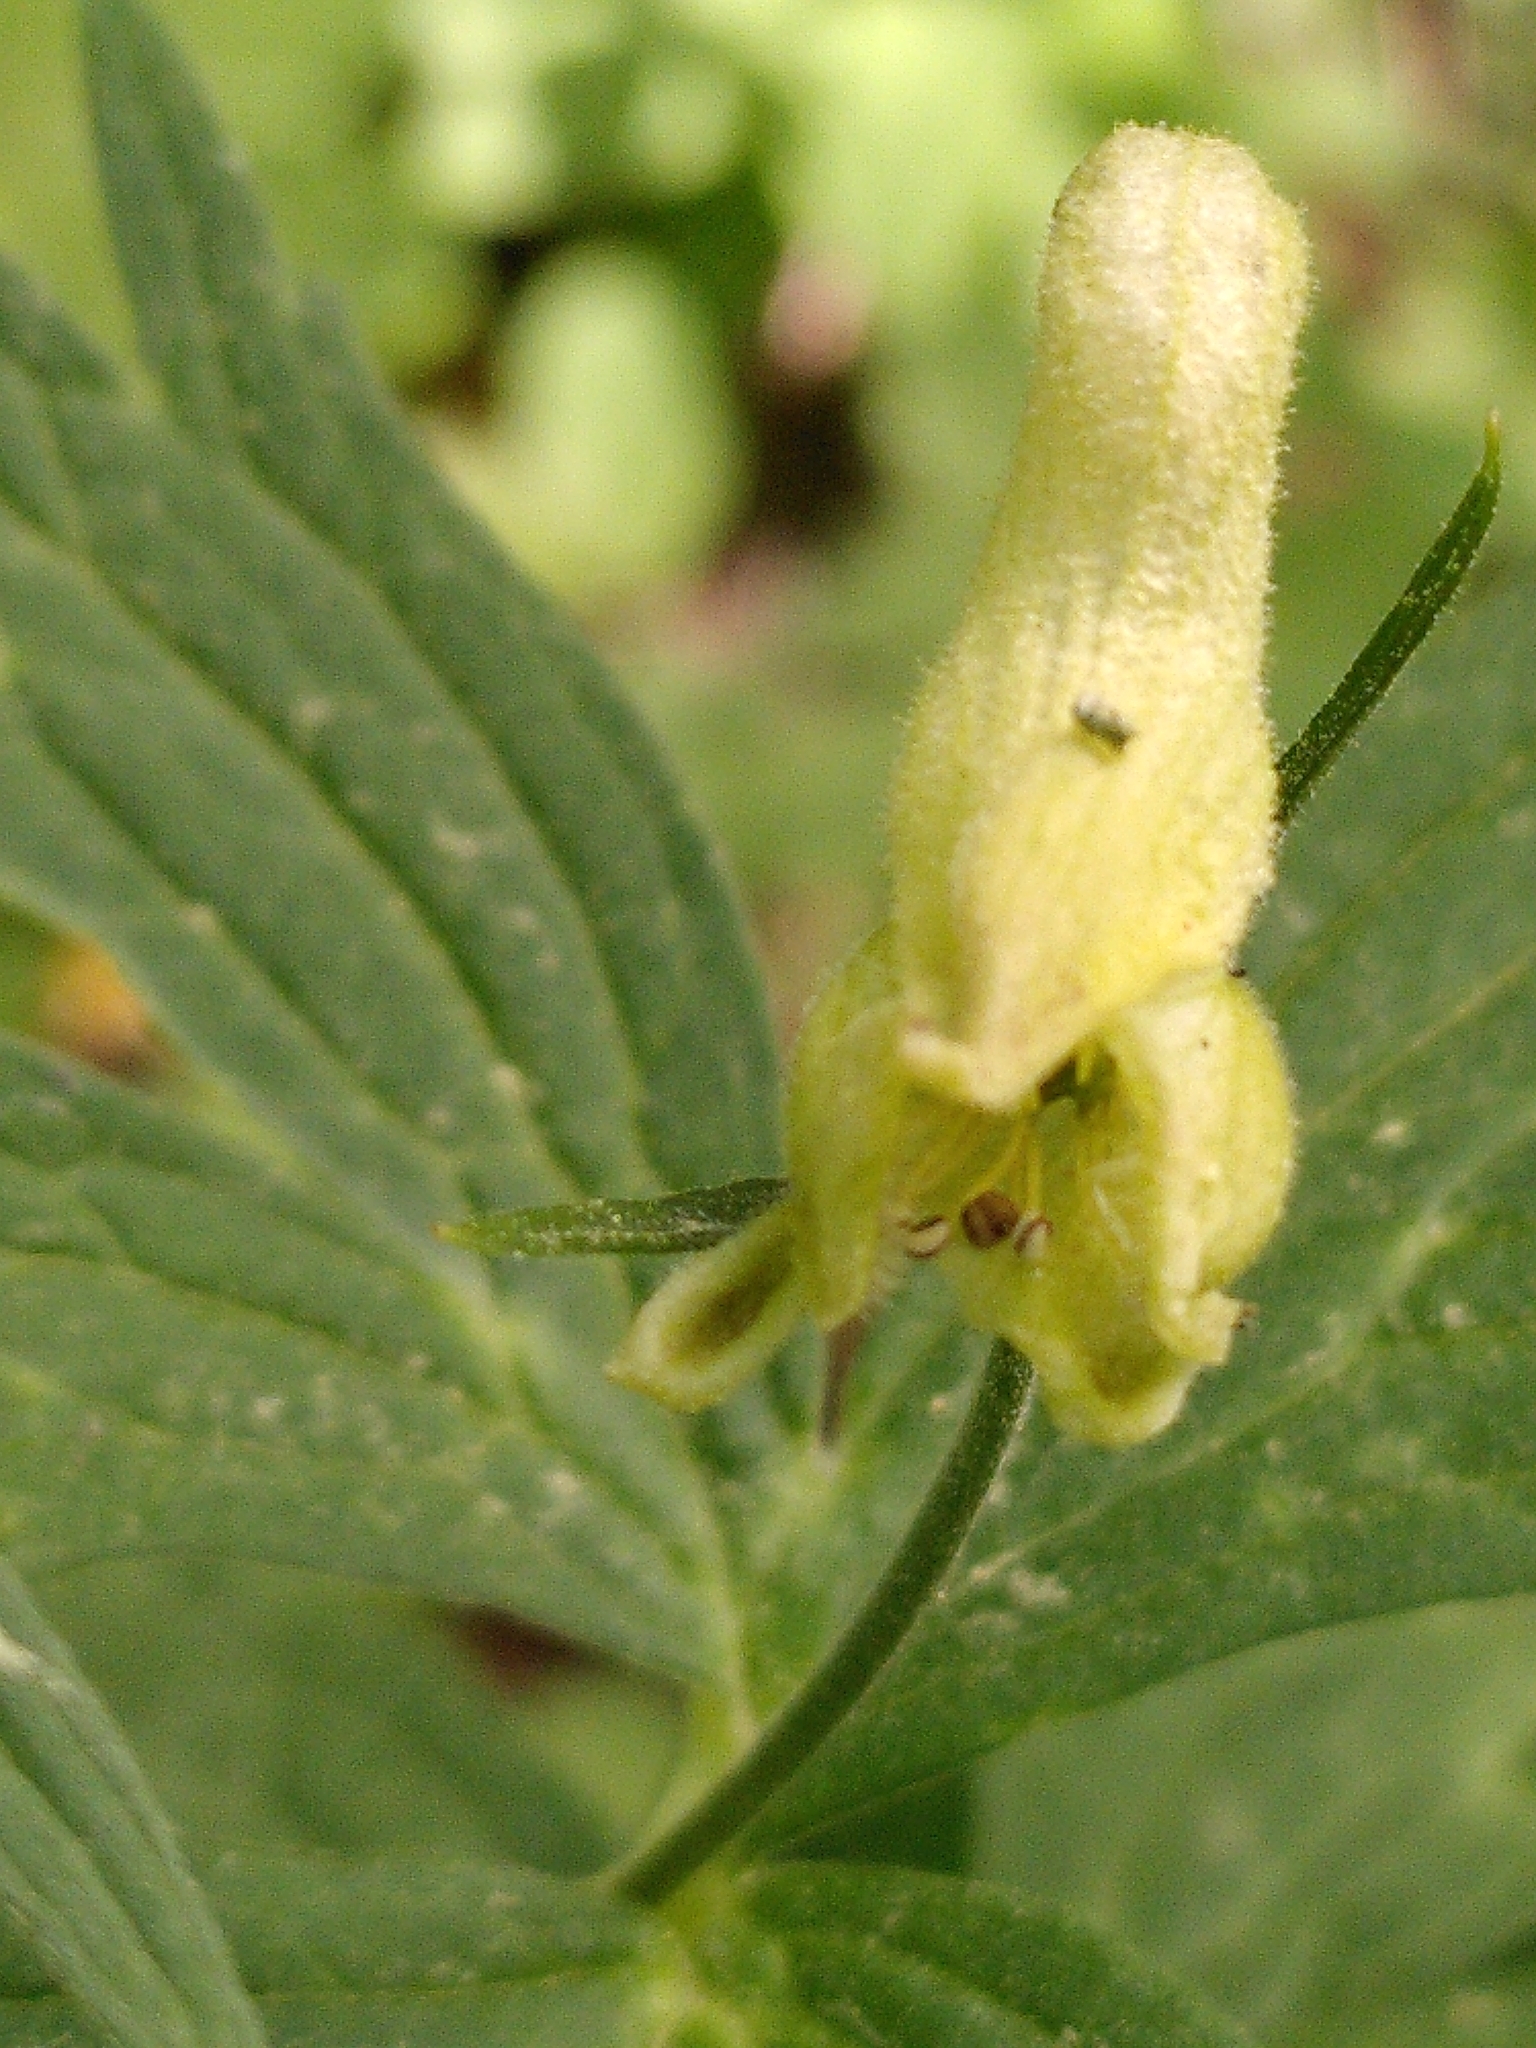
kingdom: Plantae
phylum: Tracheophyta
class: Magnoliopsida
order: Ranunculales
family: Ranunculaceae
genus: Aconitum
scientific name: Aconitum lycoctonum
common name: Wolf's-bane
